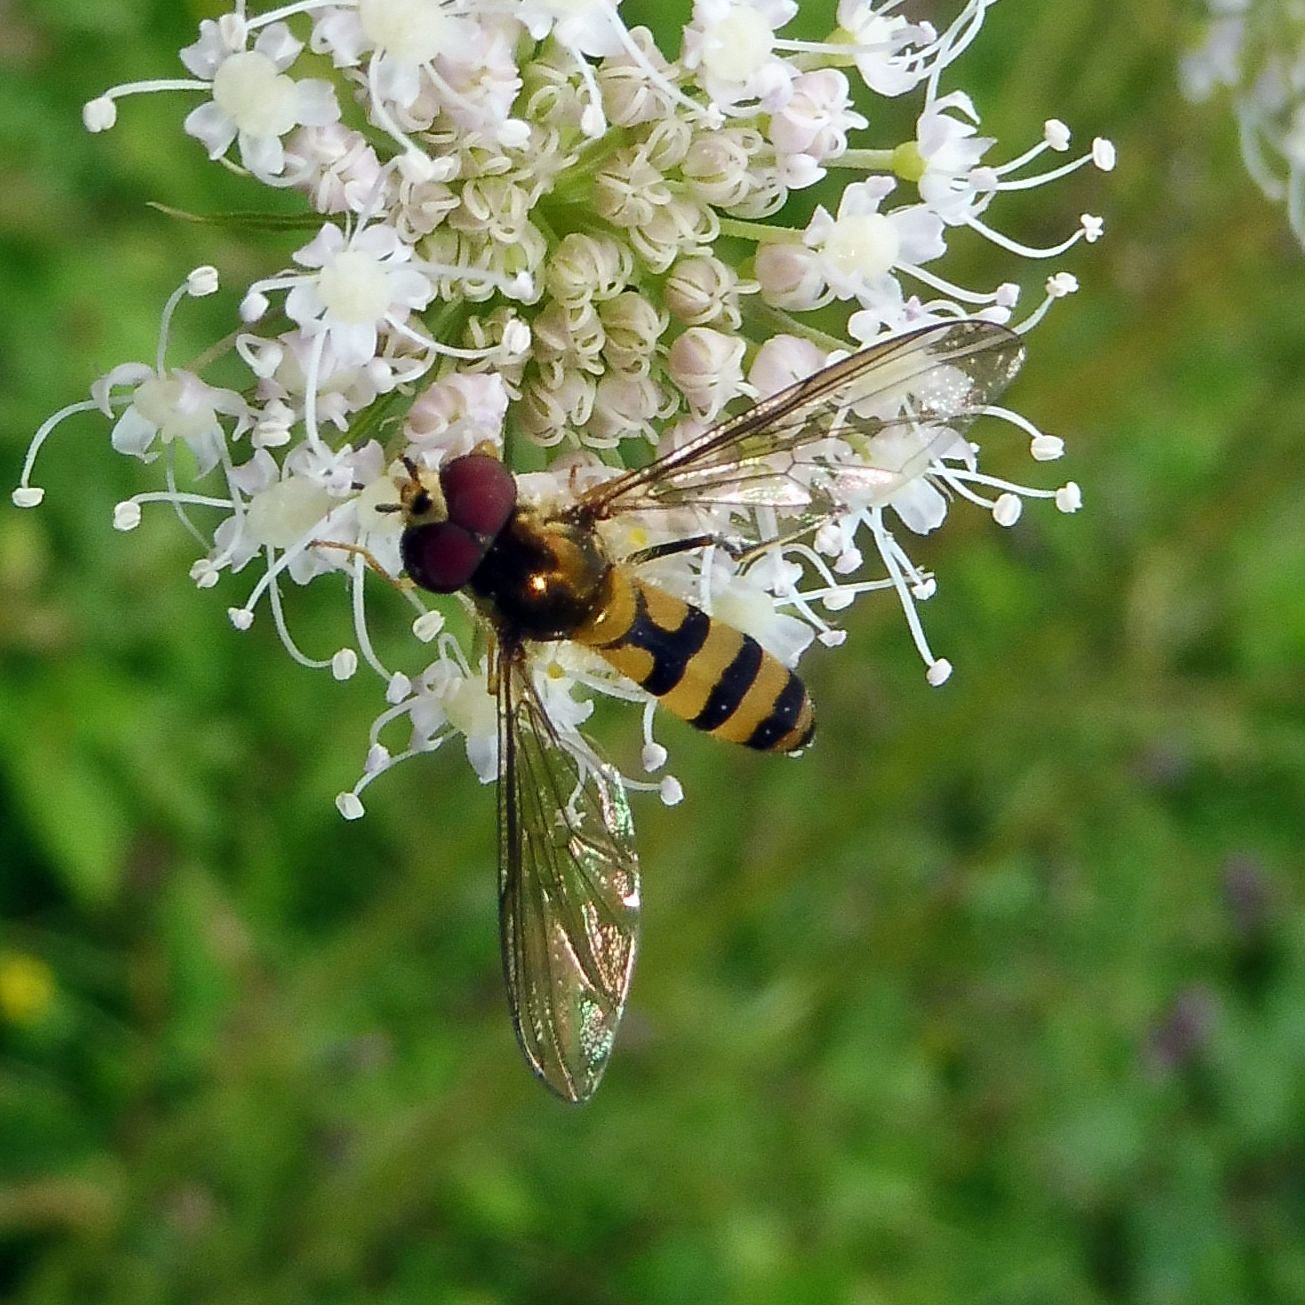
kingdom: Animalia
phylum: Arthropoda
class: Insecta
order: Diptera
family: Syrphidae
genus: Meliscaeva
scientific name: Meliscaeva cinctella
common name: American thintail fly
